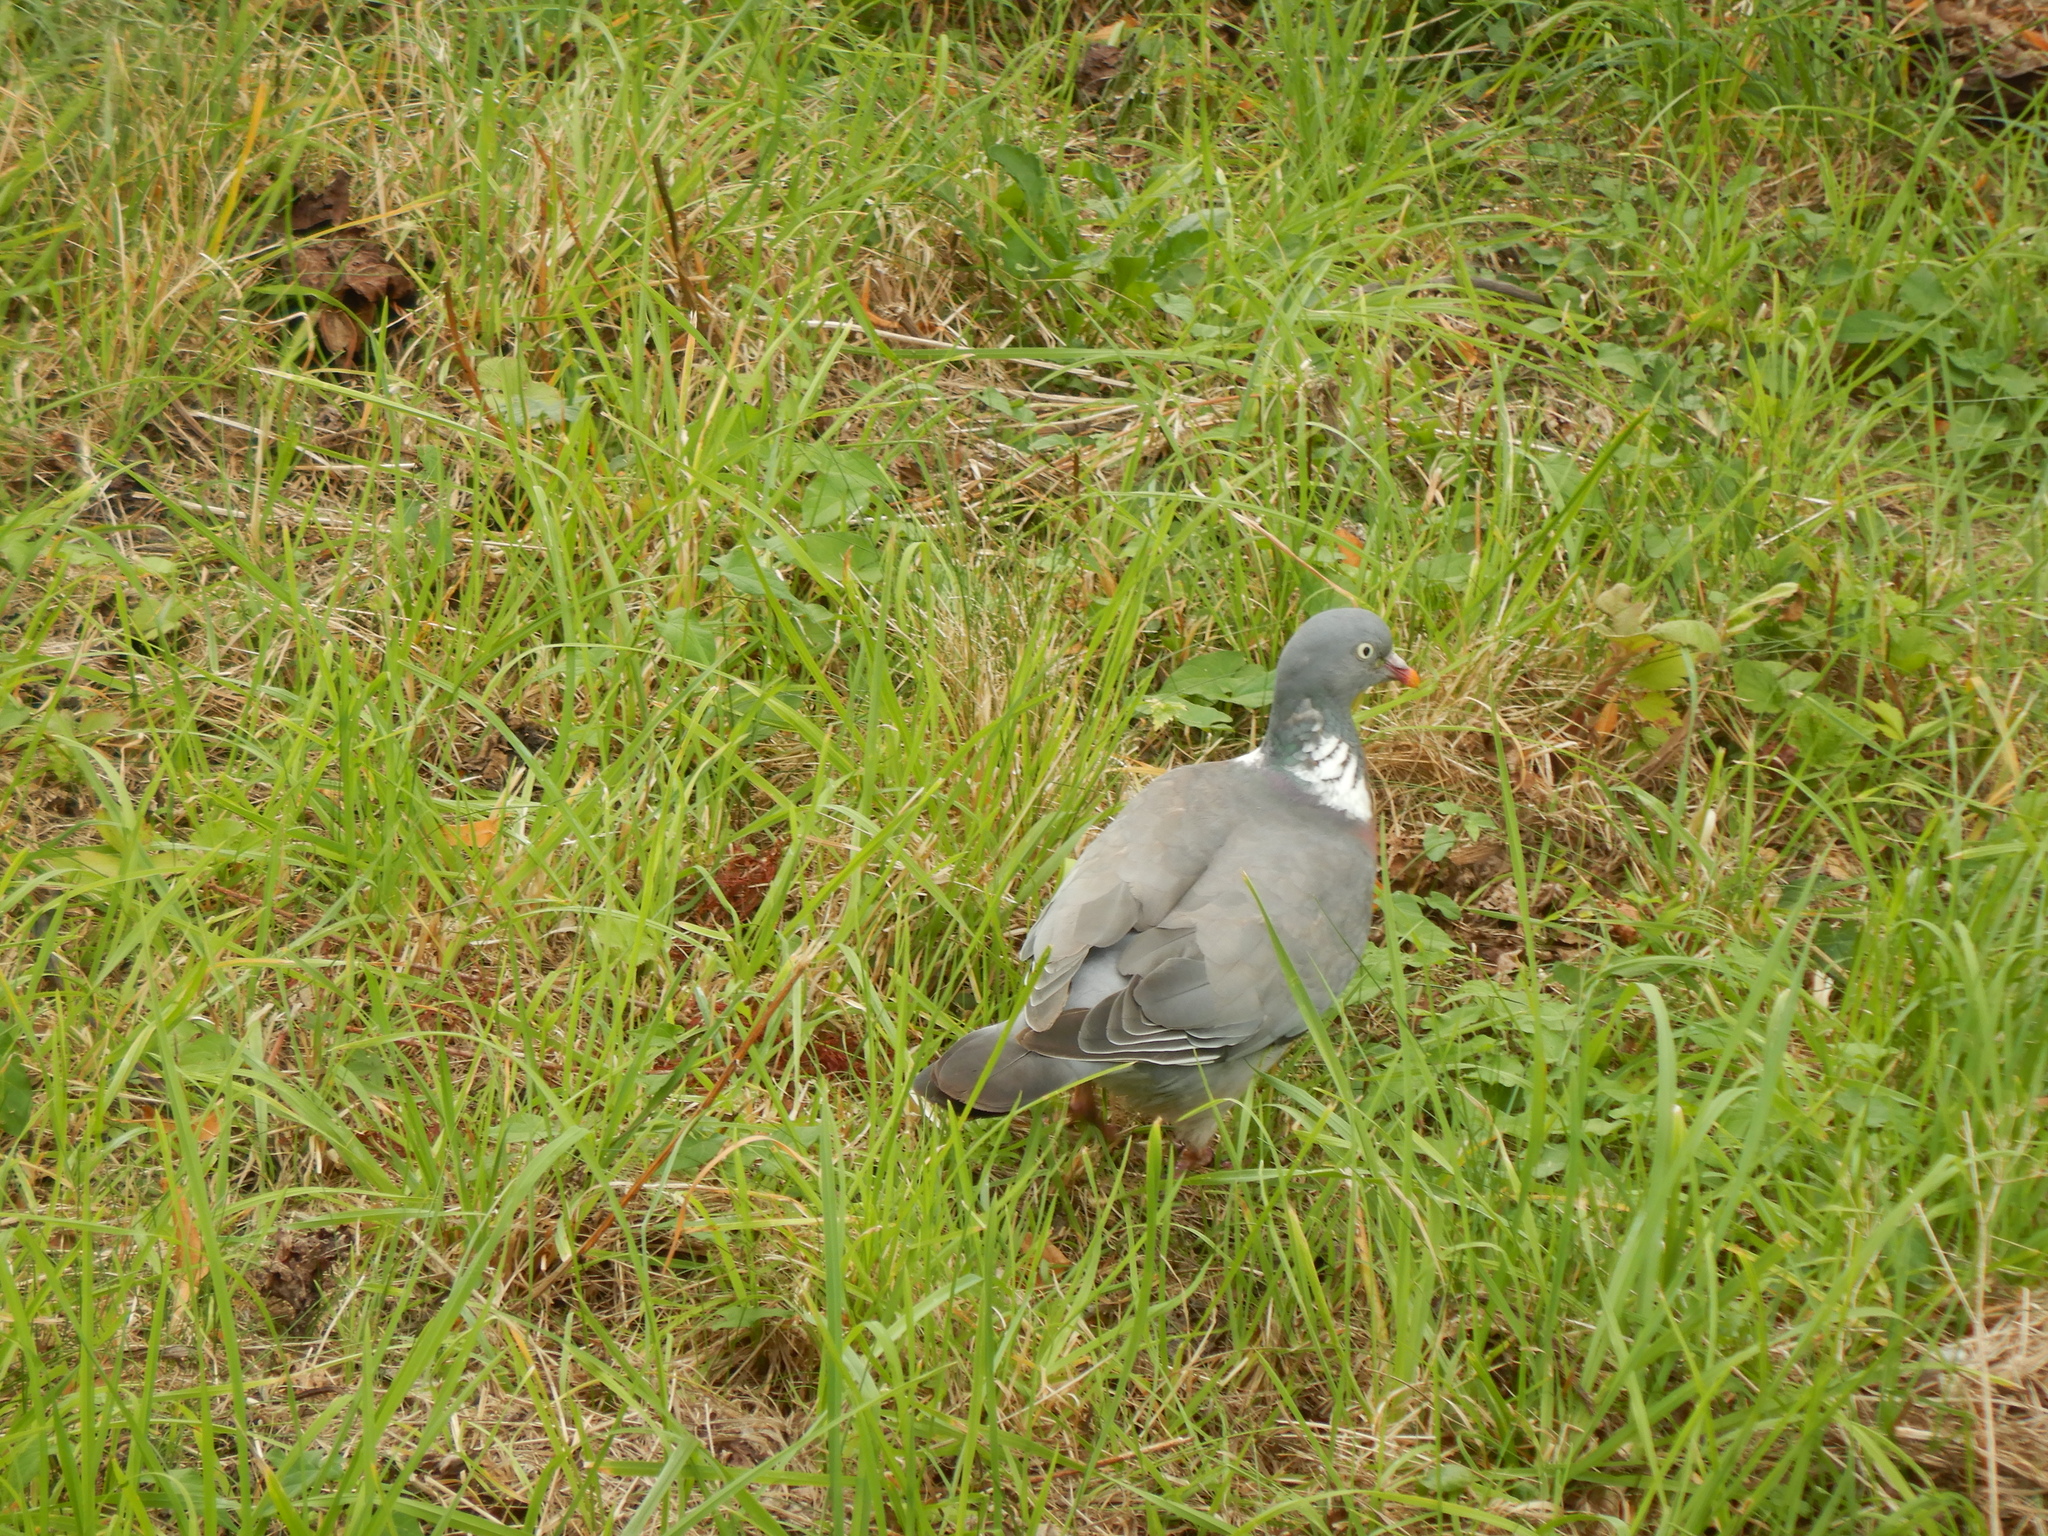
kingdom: Animalia
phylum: Chordata
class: Aves
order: Columbiformes
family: Columbidae
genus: Columba
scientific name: Columba palumbus
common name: Common wood pigeon
